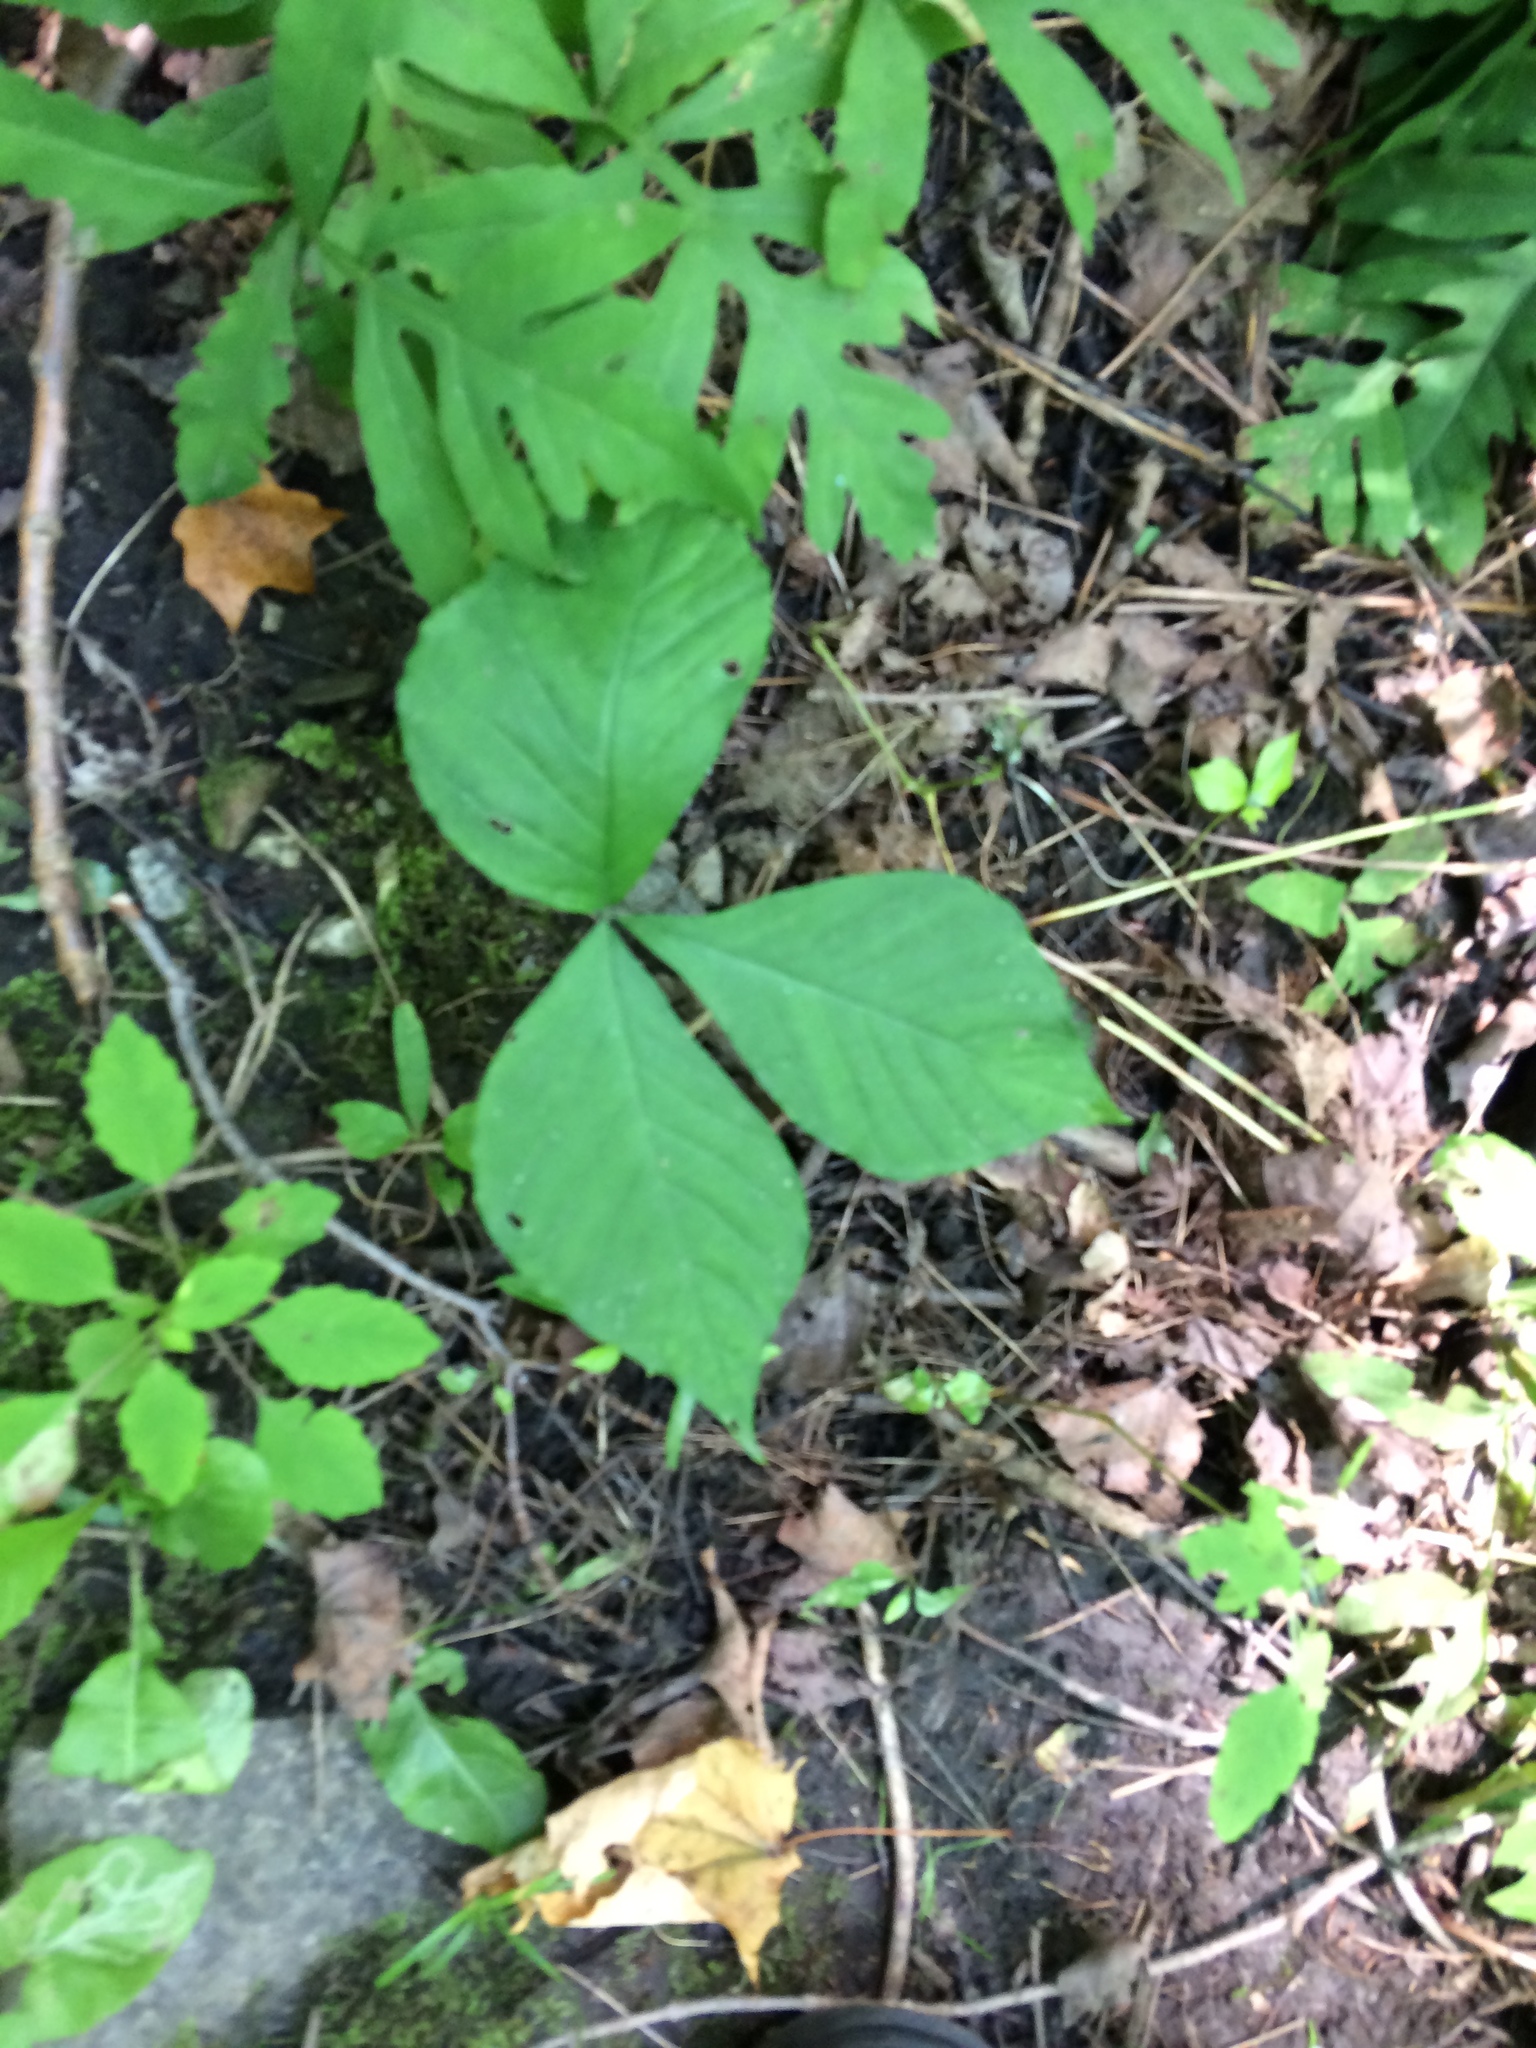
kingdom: Plantae
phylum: Tracheophyta
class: Liliopsida
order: Alismatales
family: Araceae
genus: Arisaema
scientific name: Arisaema triphyllum
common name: Jack-in-the-pulpit
